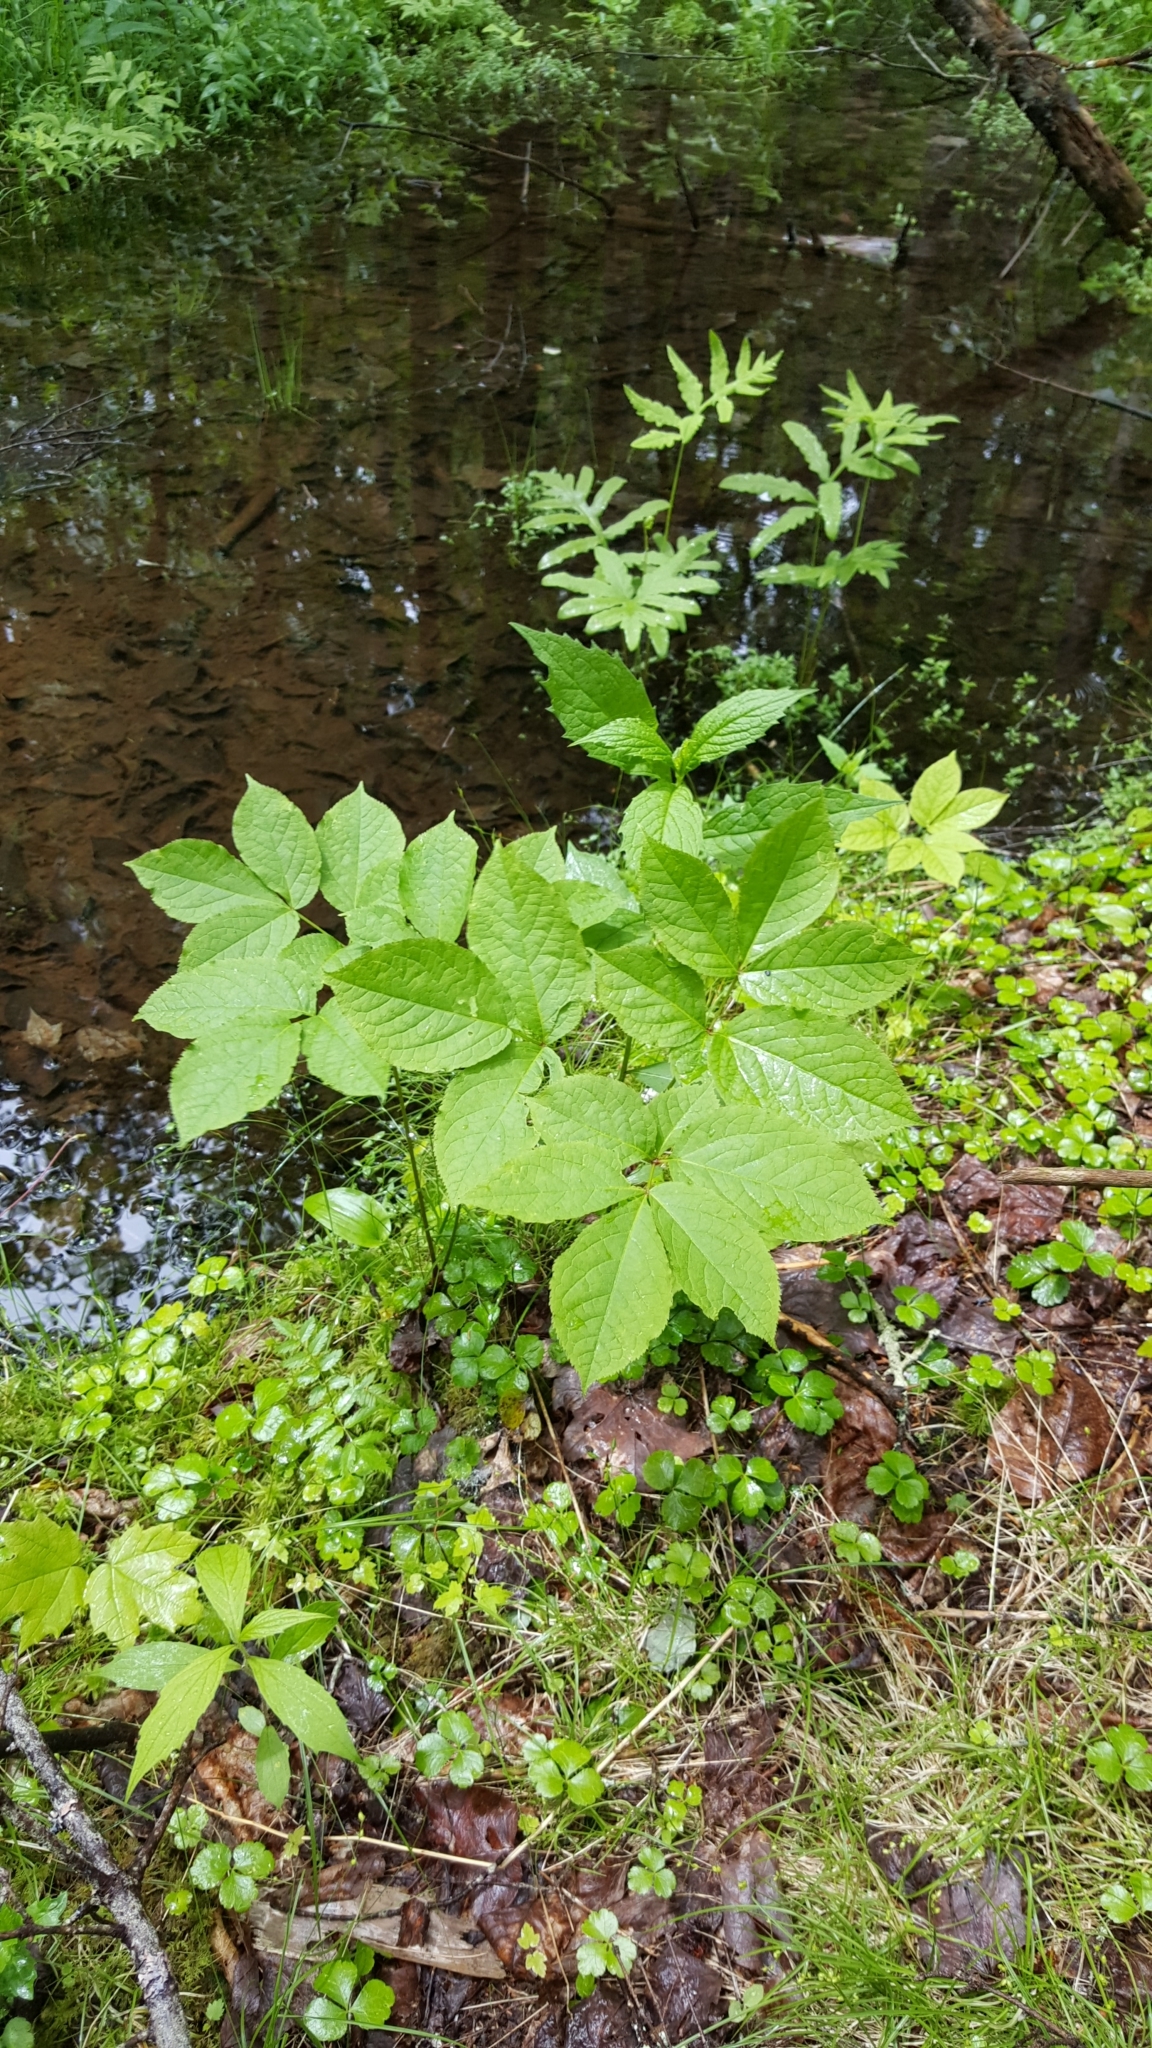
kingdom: Plantae
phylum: Tracheophyta
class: Magnoliopsida
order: Apiales
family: Araliaceae
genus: Aralia
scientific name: Aralia nudicaulis
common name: Wild sarsaparilla
